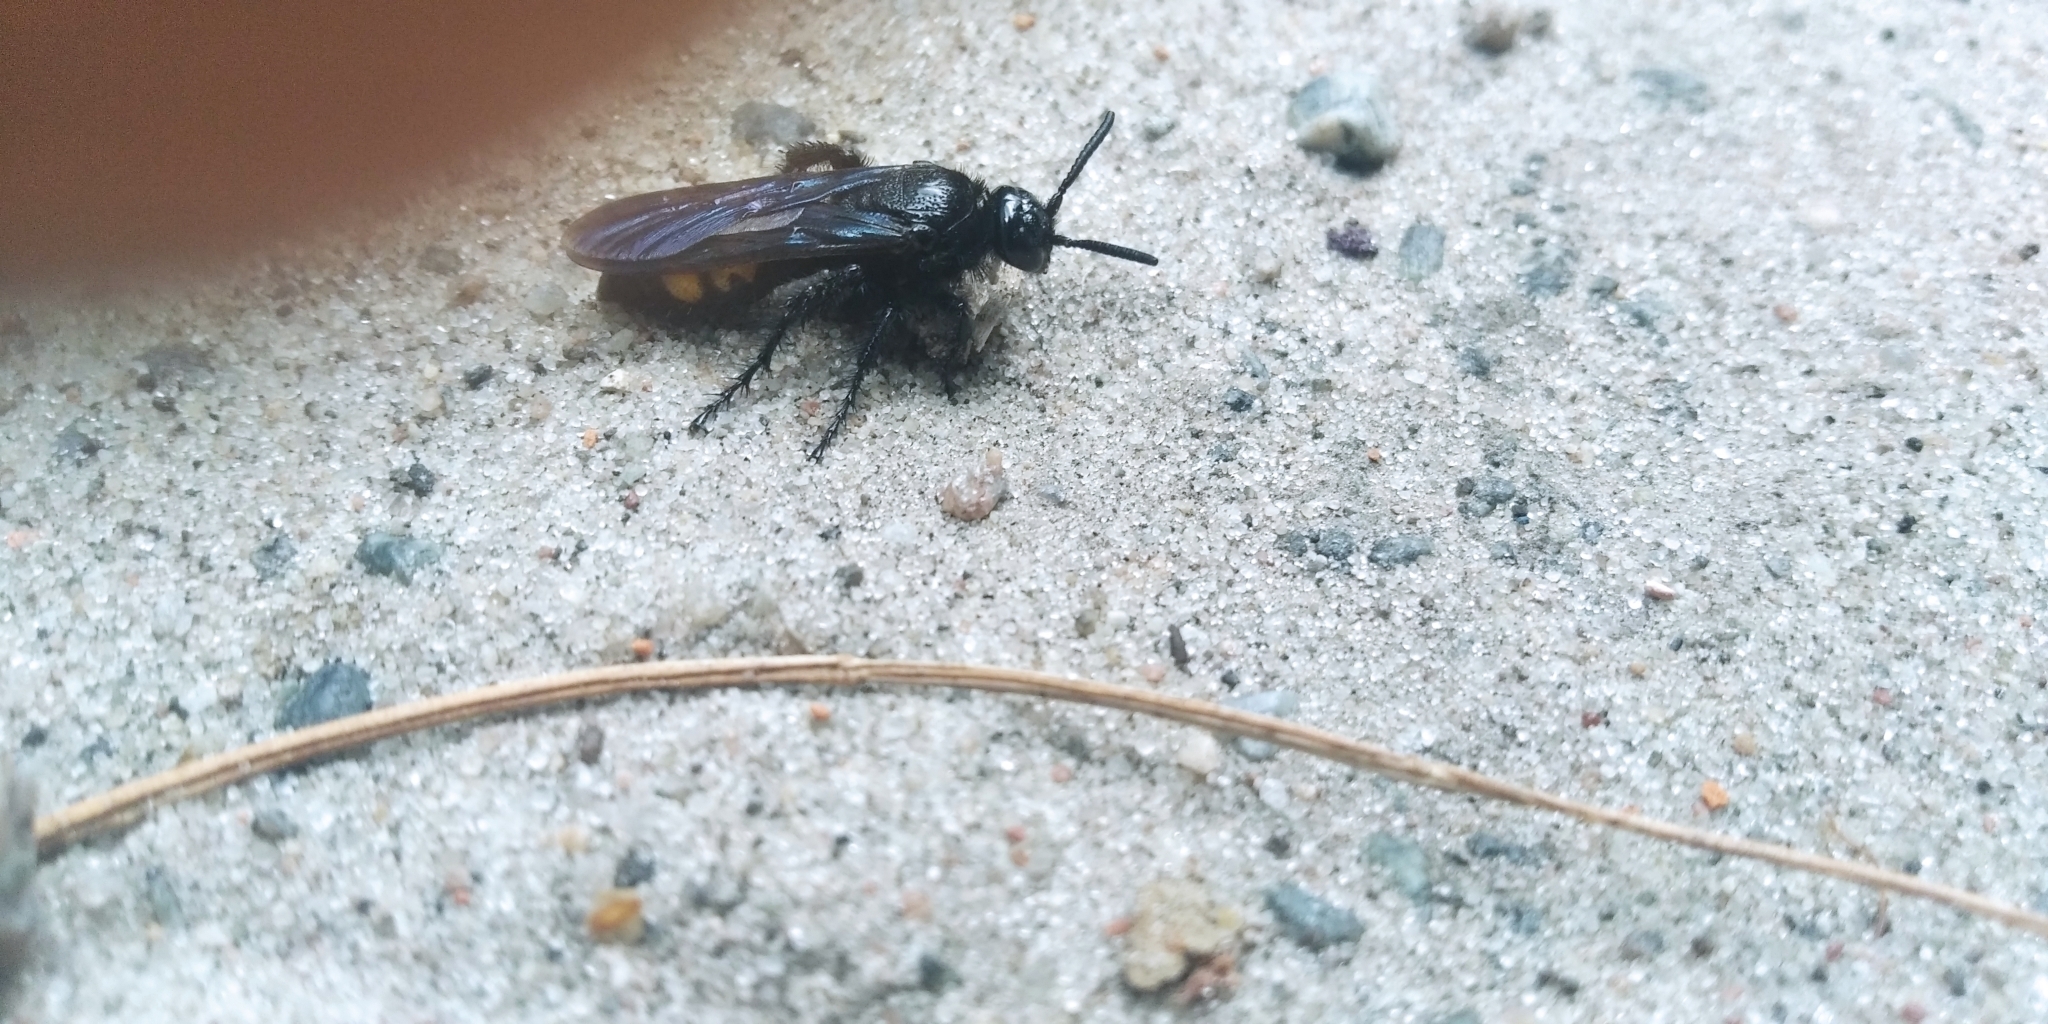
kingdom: Animalia
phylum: Arthropoda
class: Insecta
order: Hymenoptera
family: Scoliidae
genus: Scolia
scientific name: Scolia hirta
